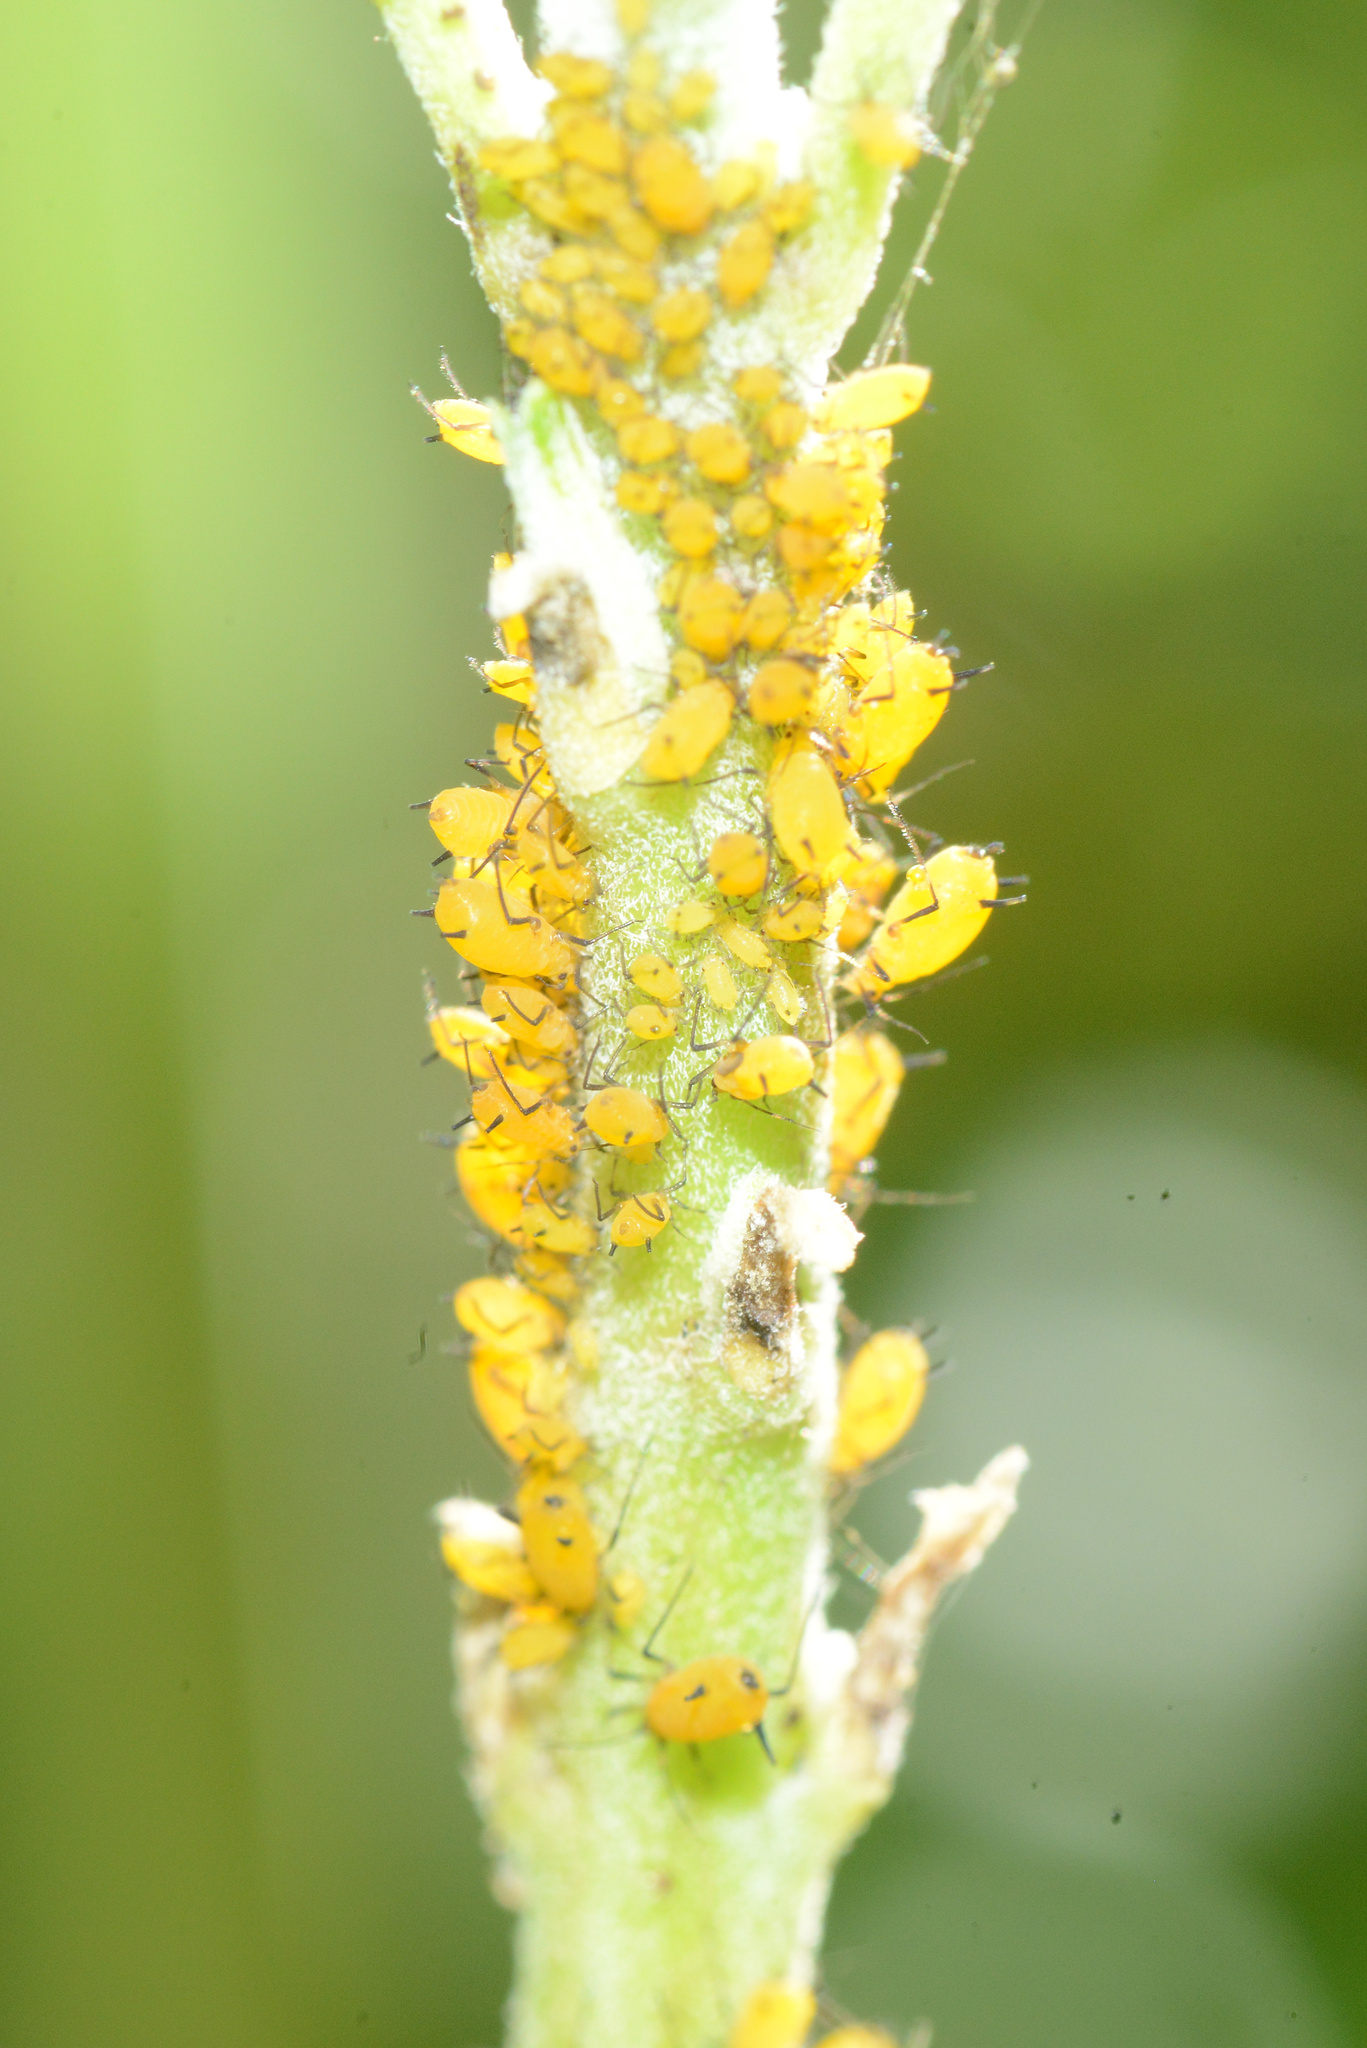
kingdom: Animalia
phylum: Arthropoda
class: Insecta
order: Hemiptera
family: Aphididae
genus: Aphis
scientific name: Aphis nerii
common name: Oleander aphid
